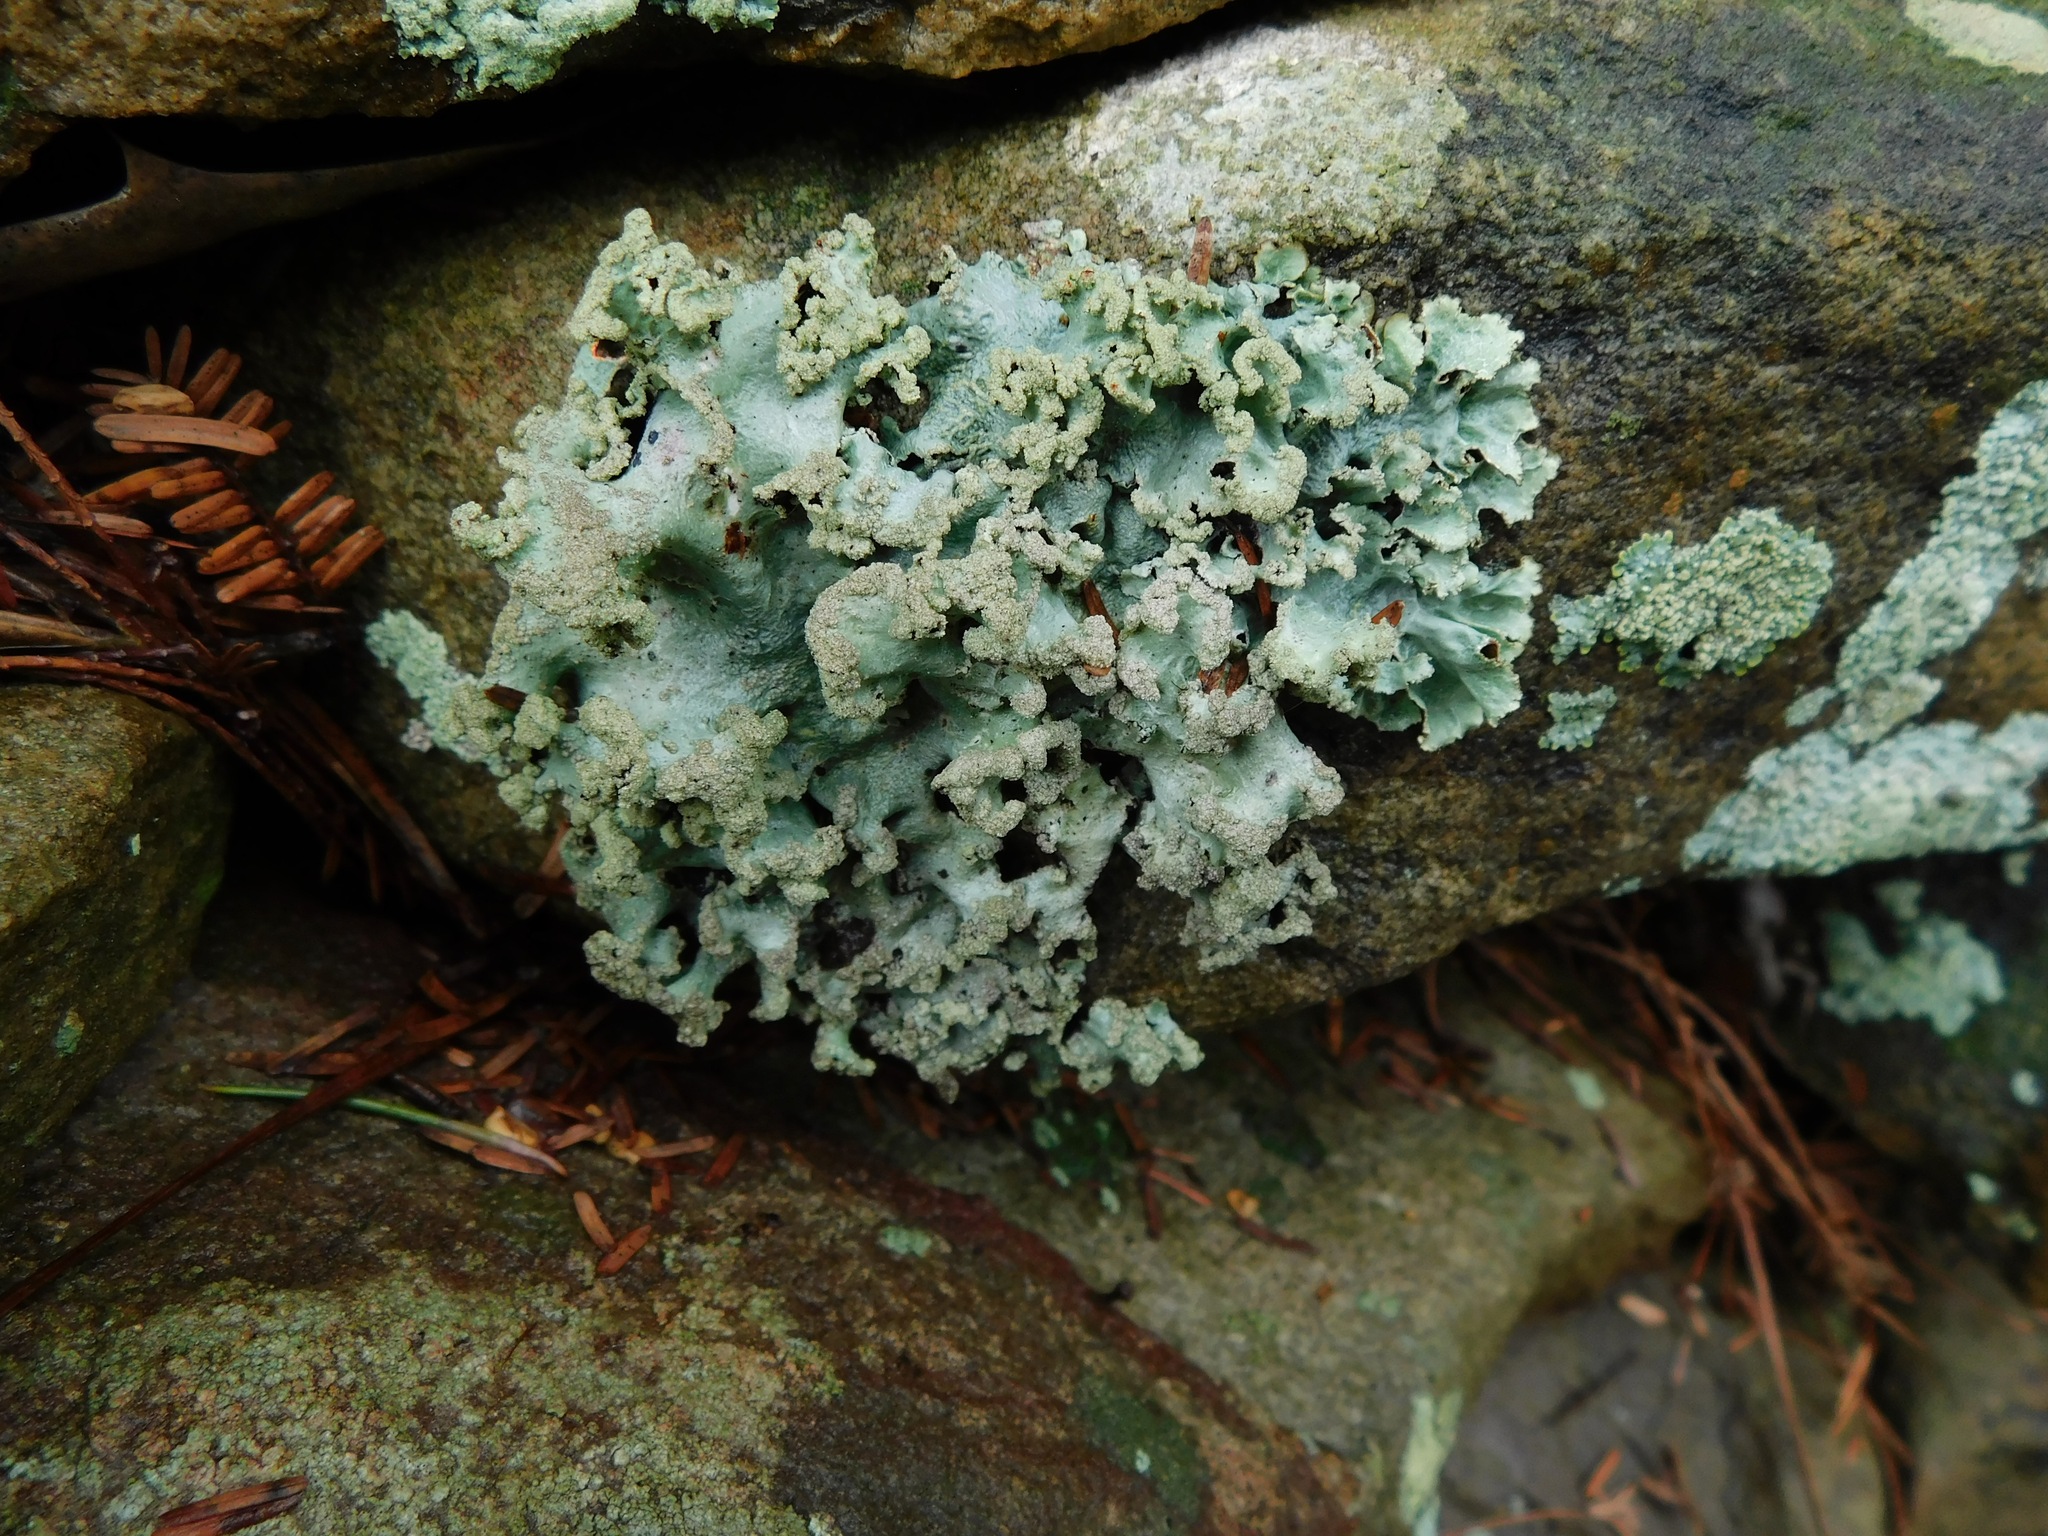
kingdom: Fungi
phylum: Ascomycota
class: Lecanoromycetes
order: Lecanorales
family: Parmeliaceae
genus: Parmotrema
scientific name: Parmotrema subtinctorium
